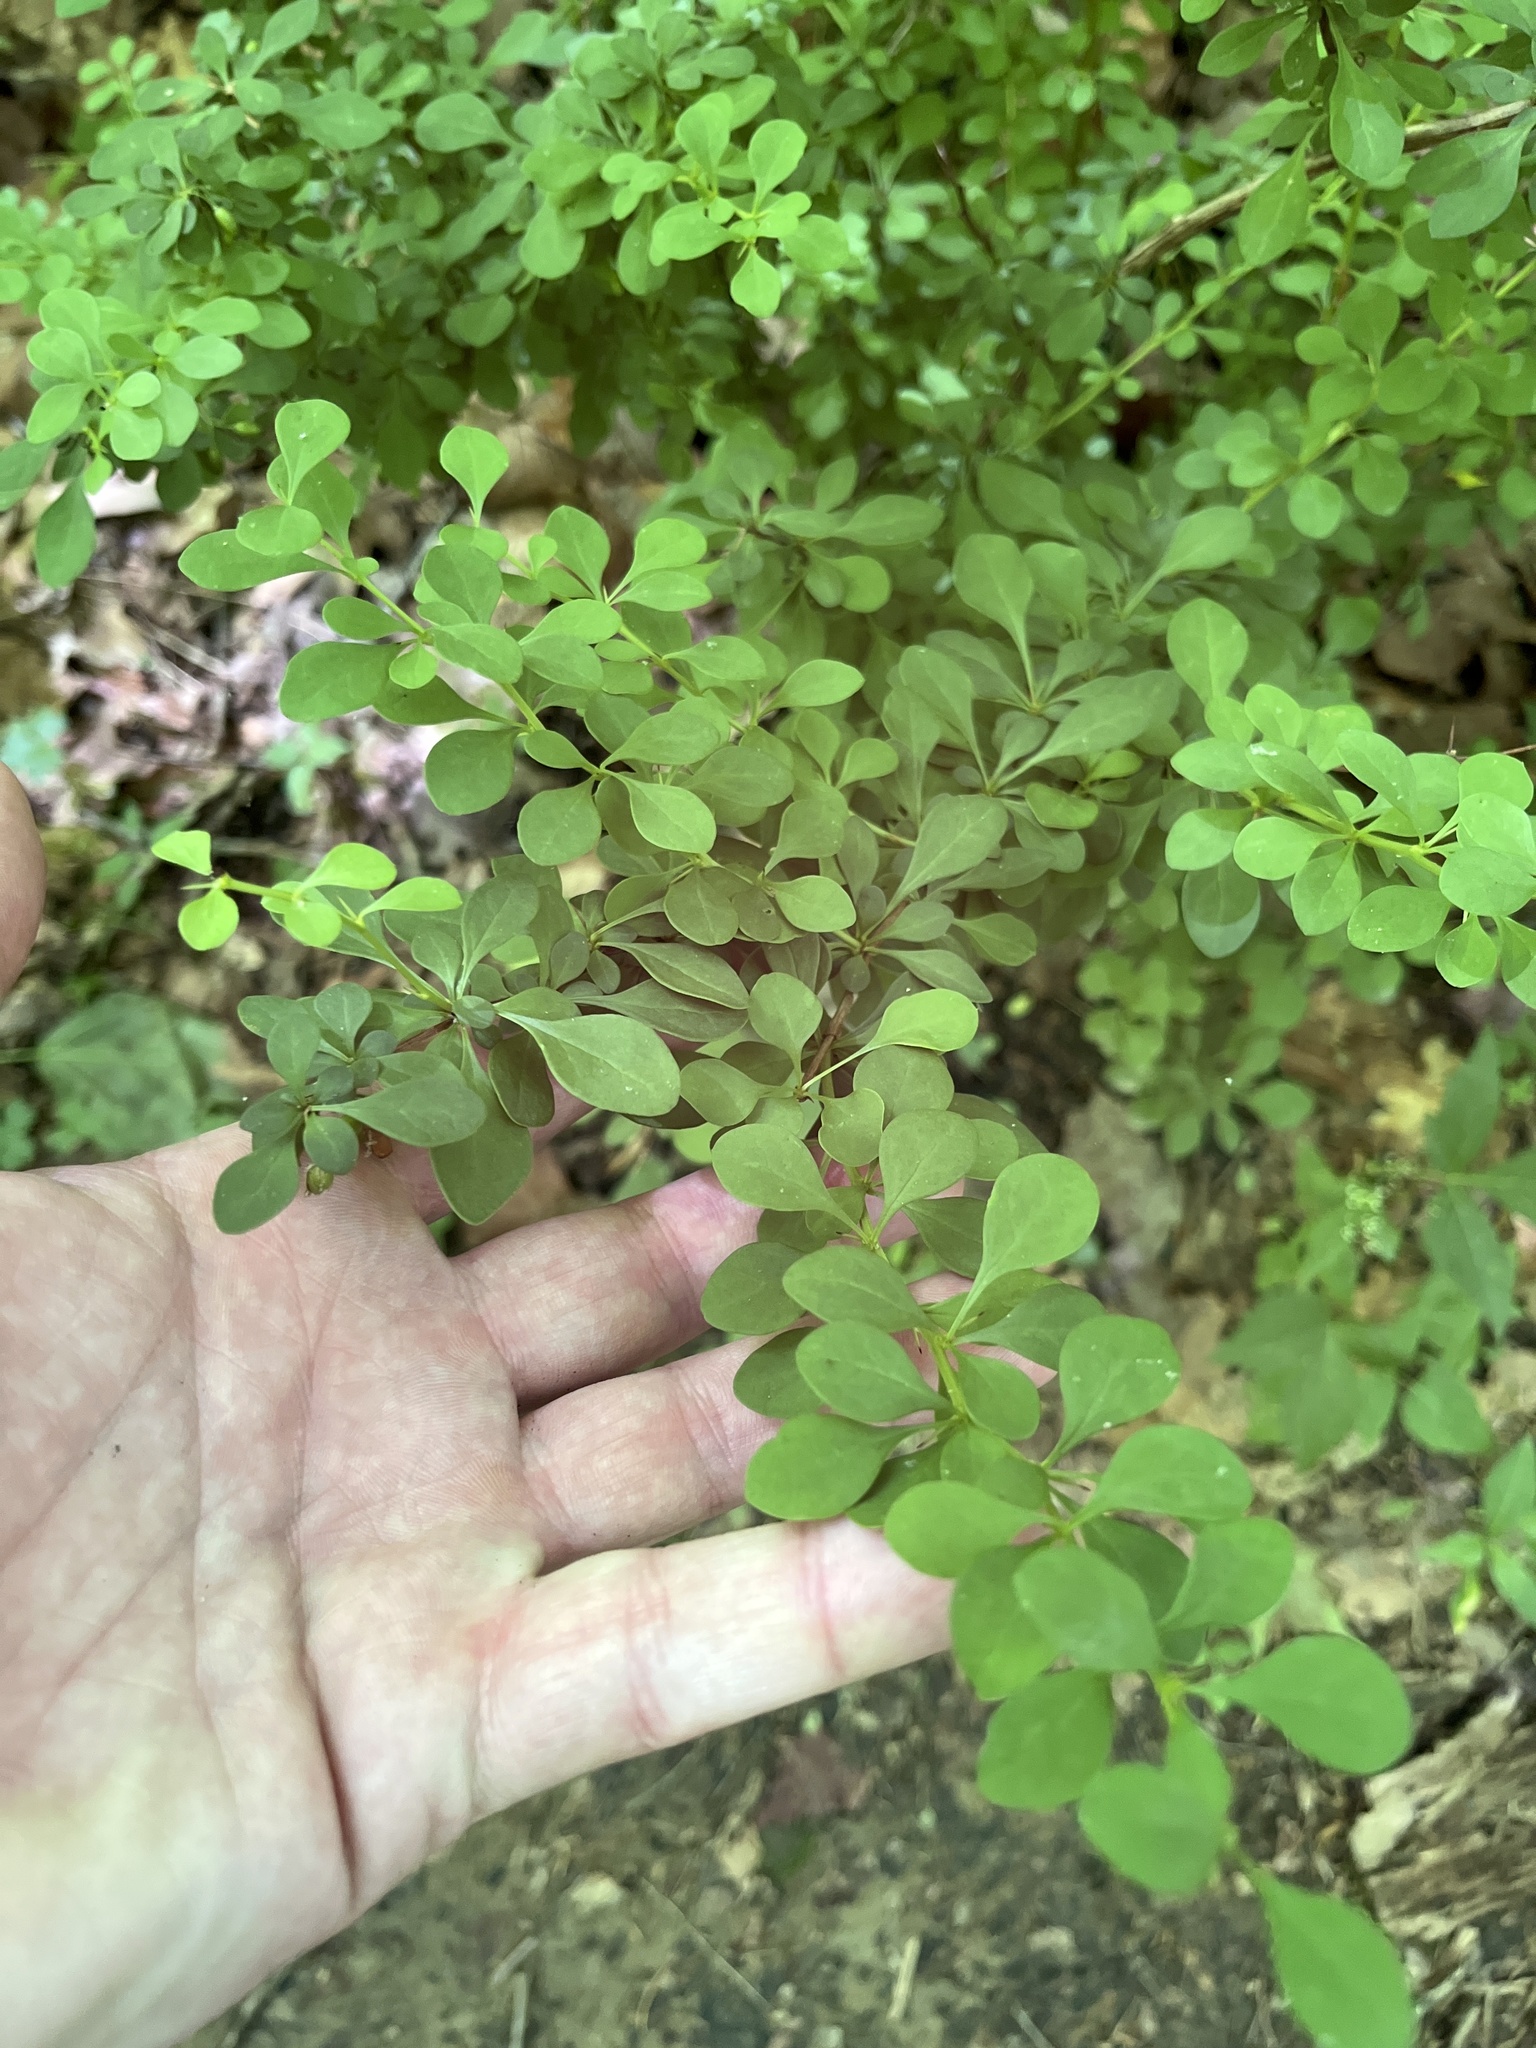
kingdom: Plantae
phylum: Tracheophyta
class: Magnoliopsida
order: Ranunculales
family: Berberidaceae
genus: Berberis
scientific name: Berberis thunbergii
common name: Japanese barberry
